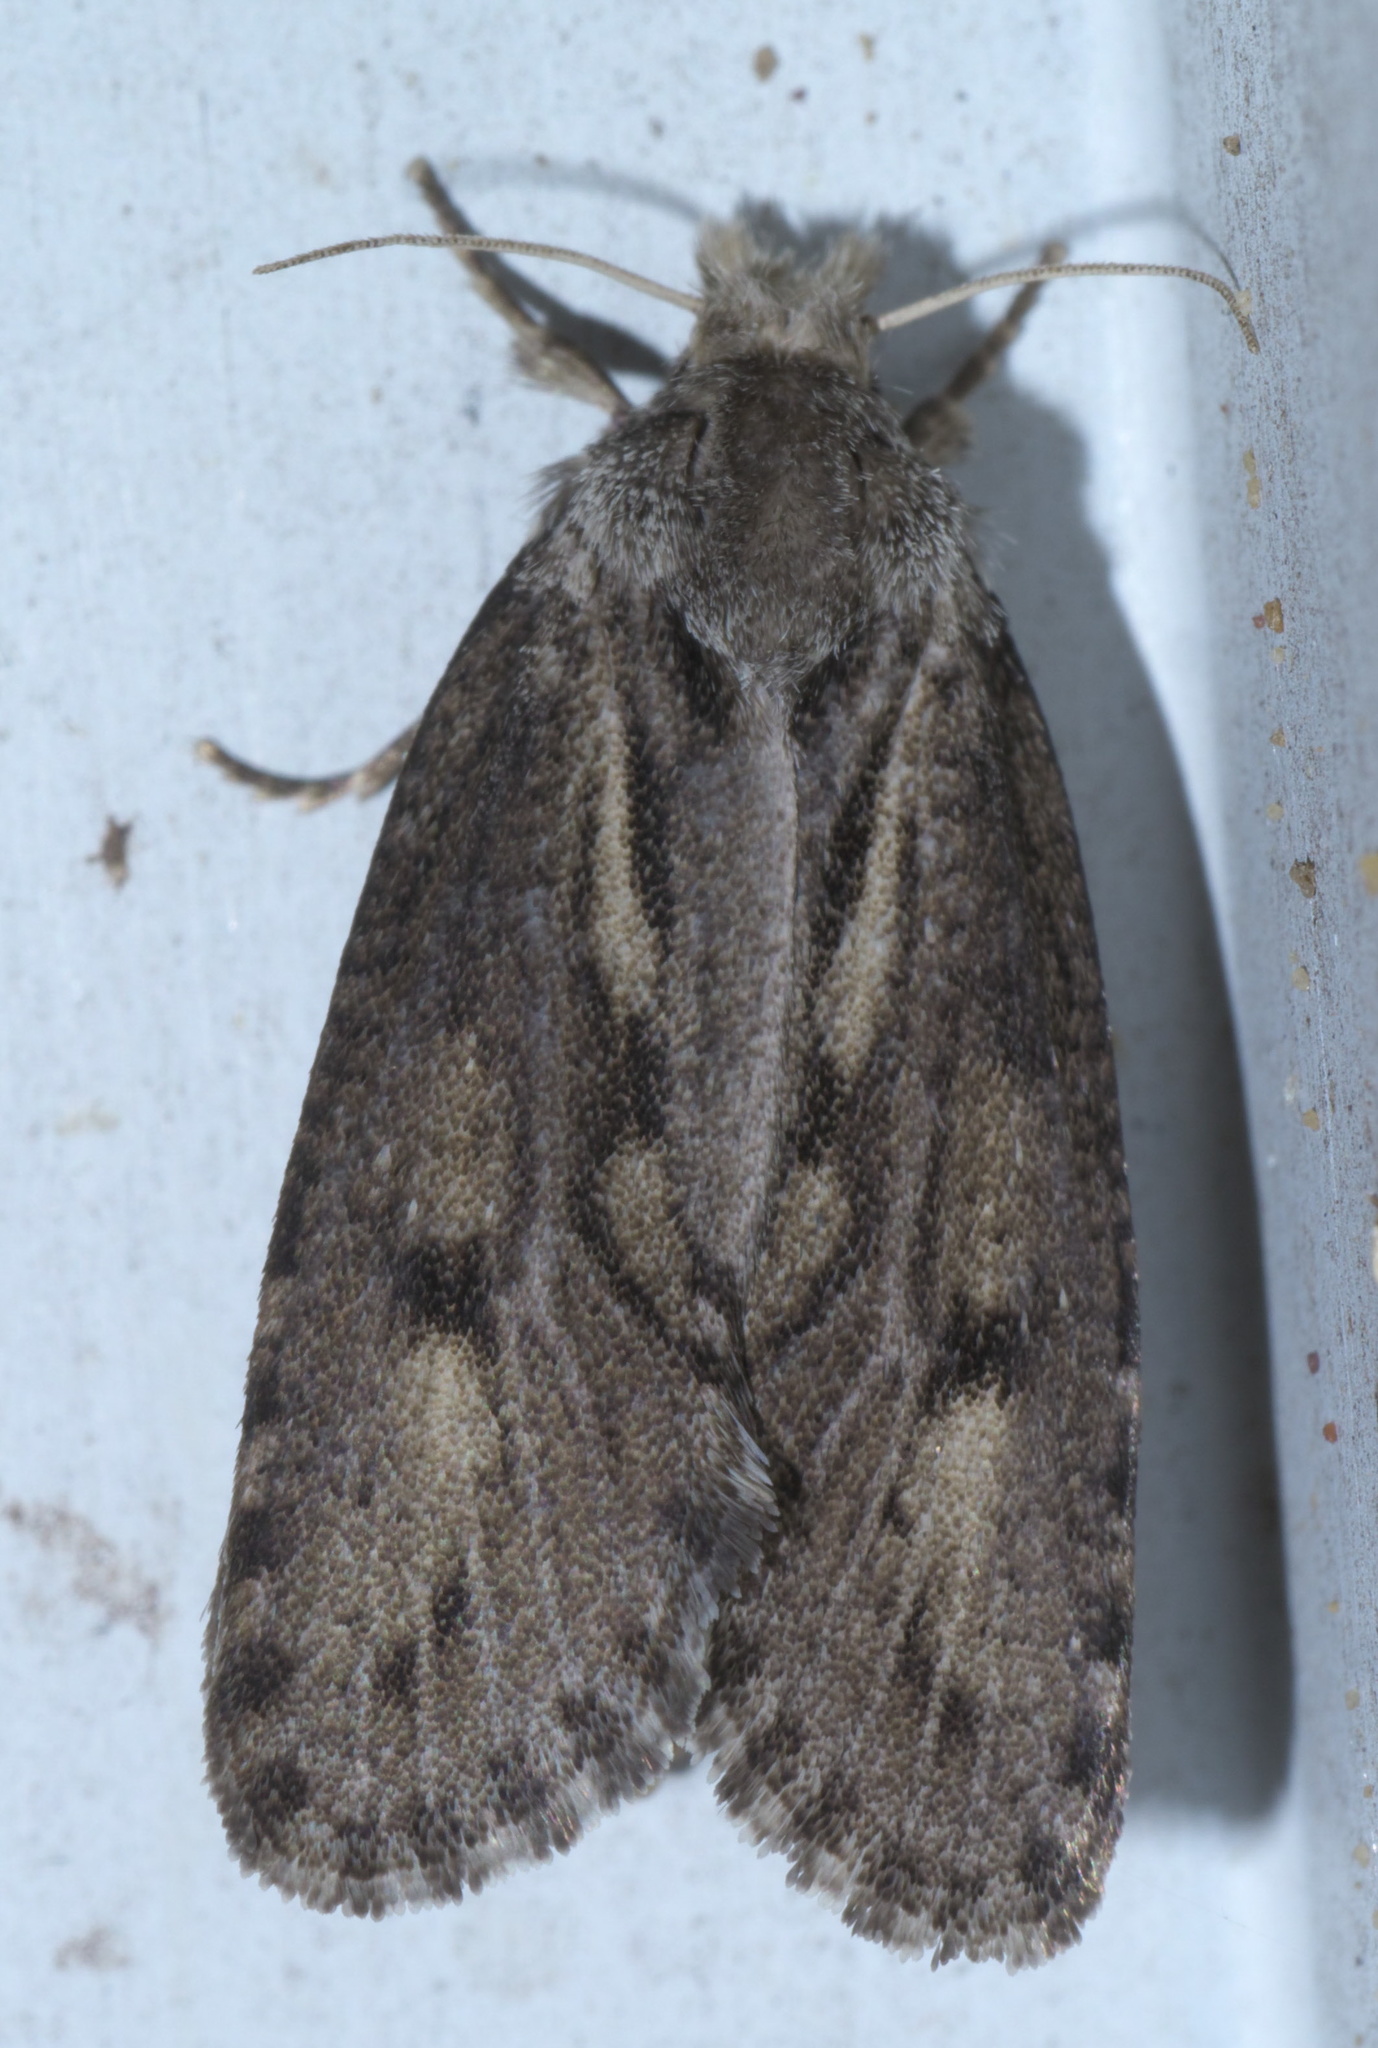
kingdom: Animalia
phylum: Arthropoda
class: Insecta
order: Lepidoptera
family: Tineidae
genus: Acrolophus
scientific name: Acrolophus popeanella
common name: Clemens' grass tubeworm moth
